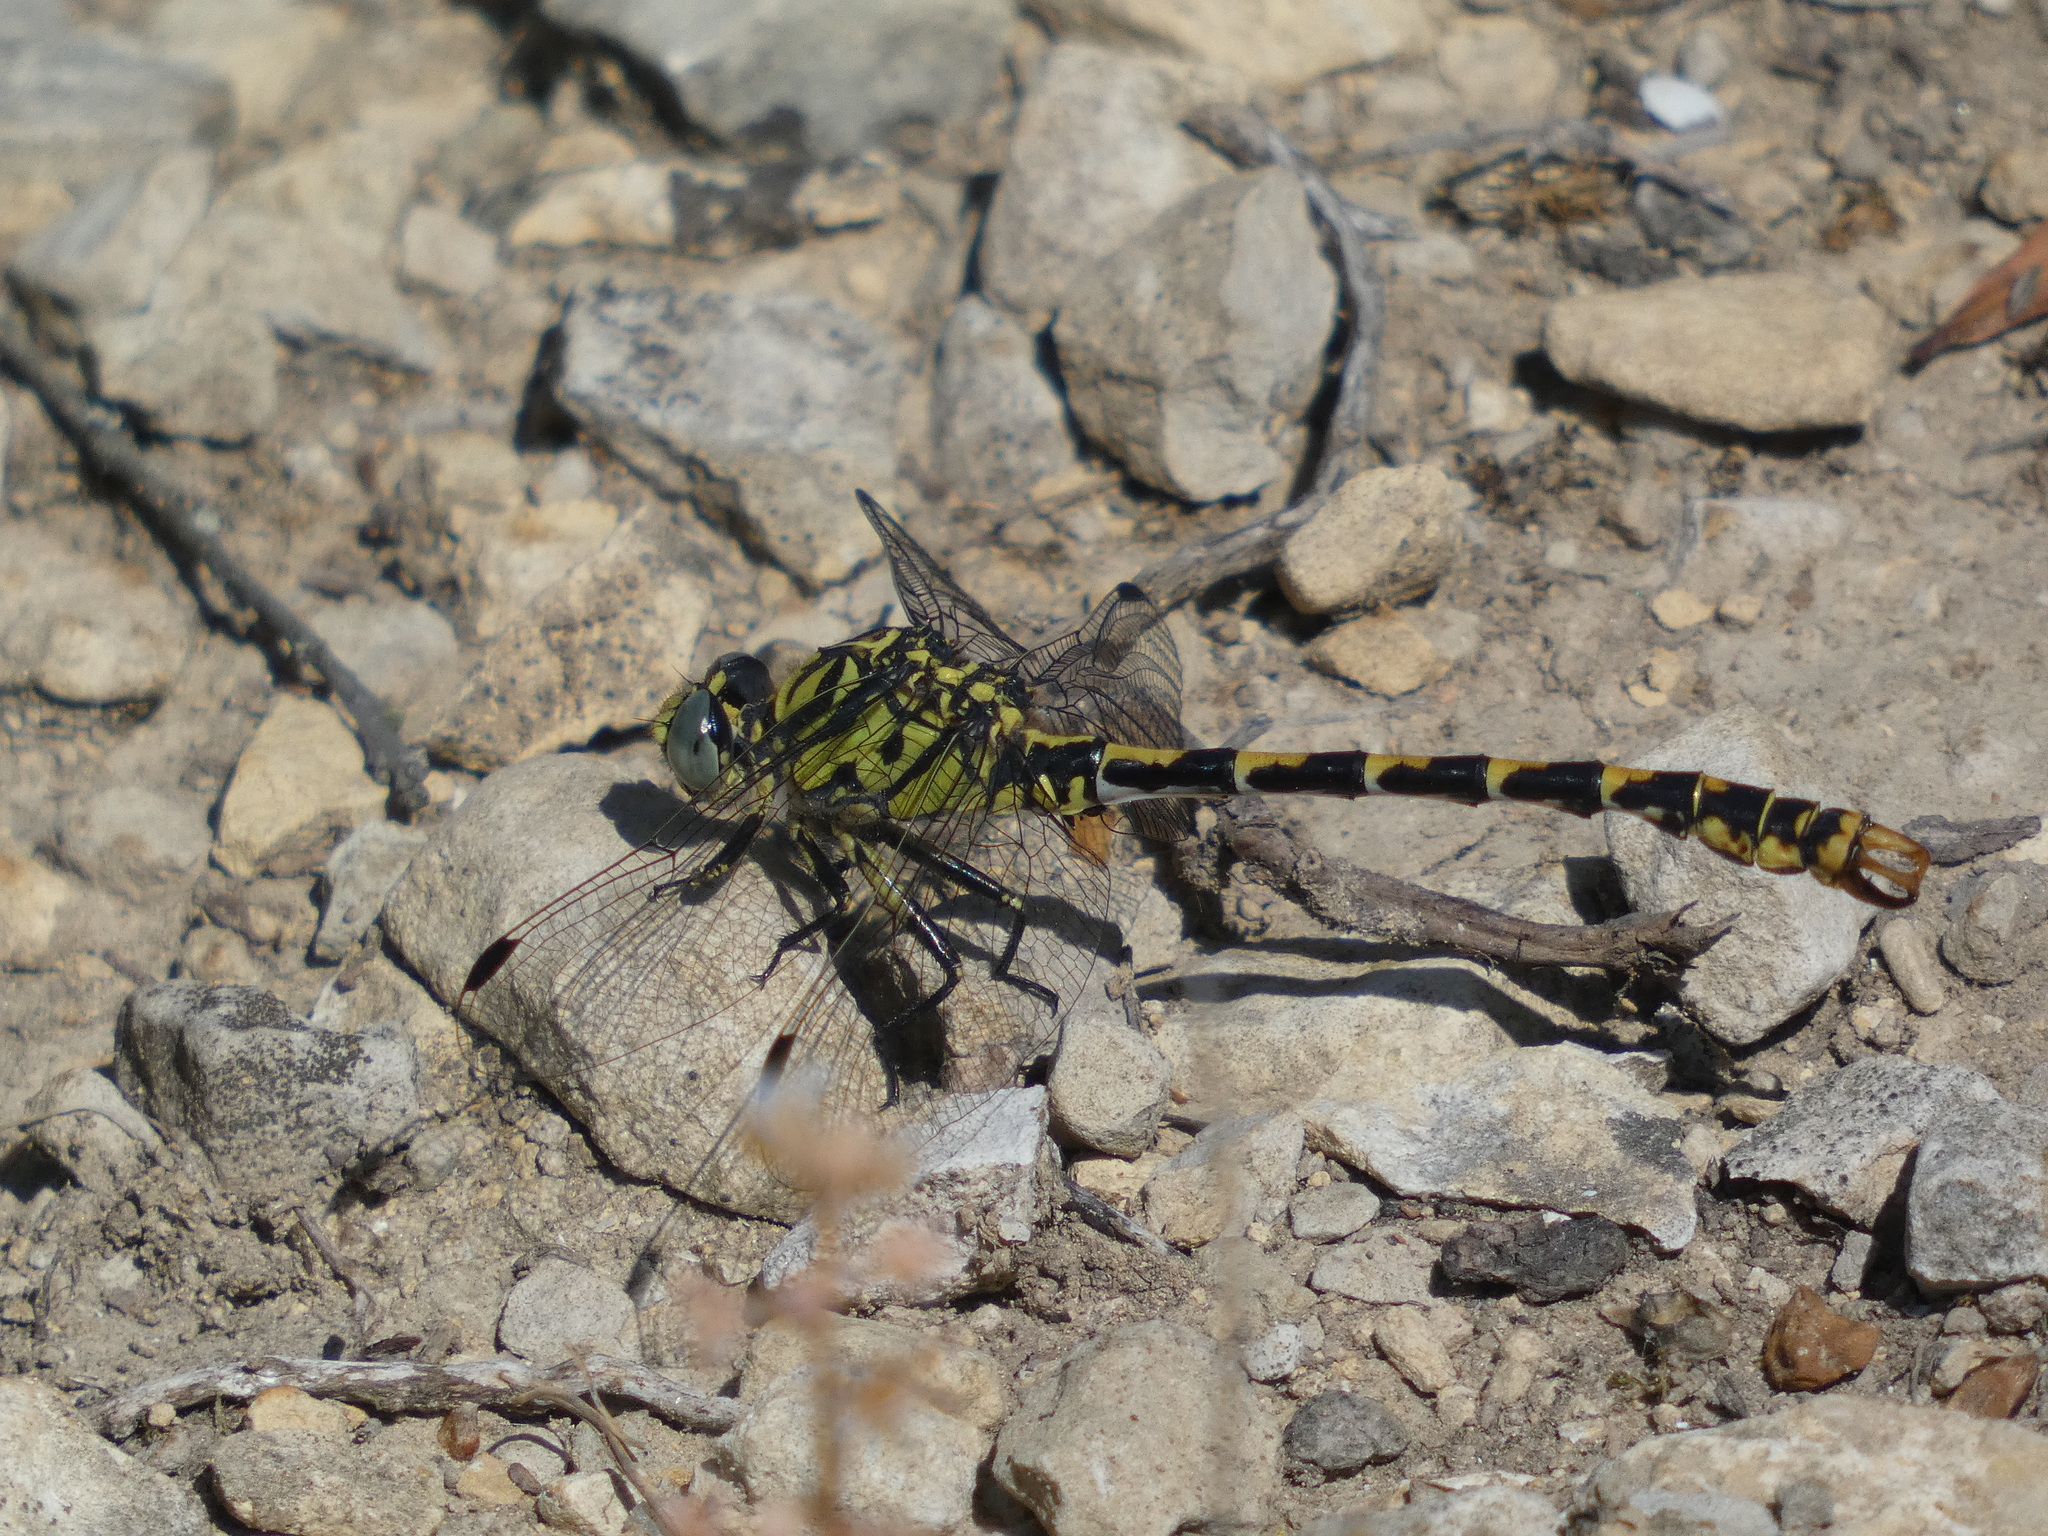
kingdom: Animalia
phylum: Arthropoda
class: Insecta
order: Odonata
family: Gomphidae
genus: Onychogomphus
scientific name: Onychogomphus forcipatus
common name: Small pincertail
